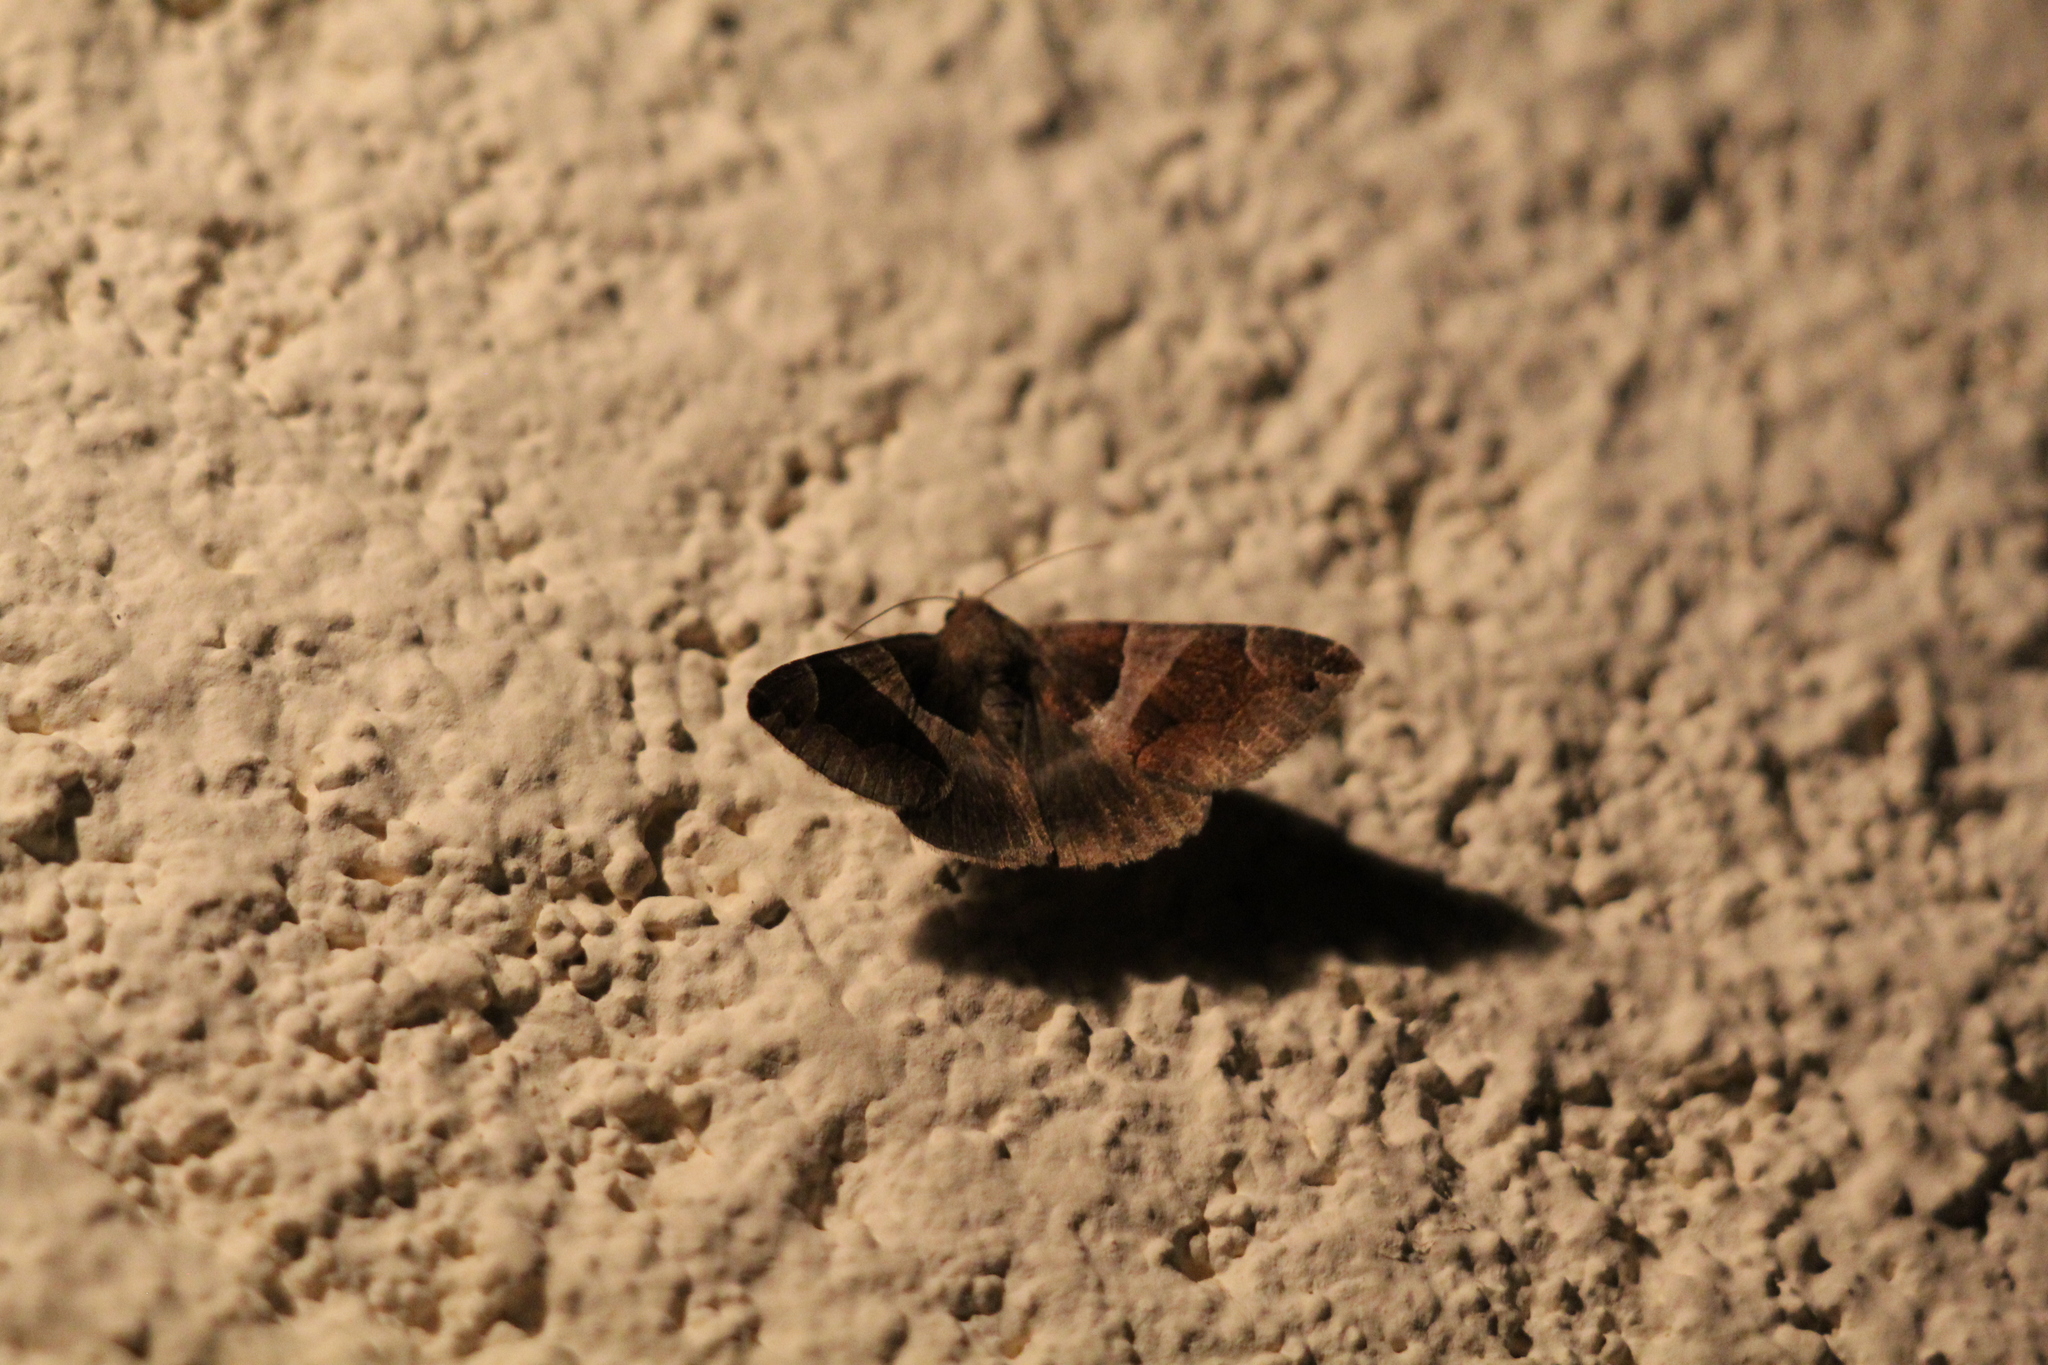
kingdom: Animalia
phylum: Arthropoda
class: Insecta
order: Lepidoptera
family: Erebidae
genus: Dysgonia
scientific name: Dysgonia algira
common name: Passenger
